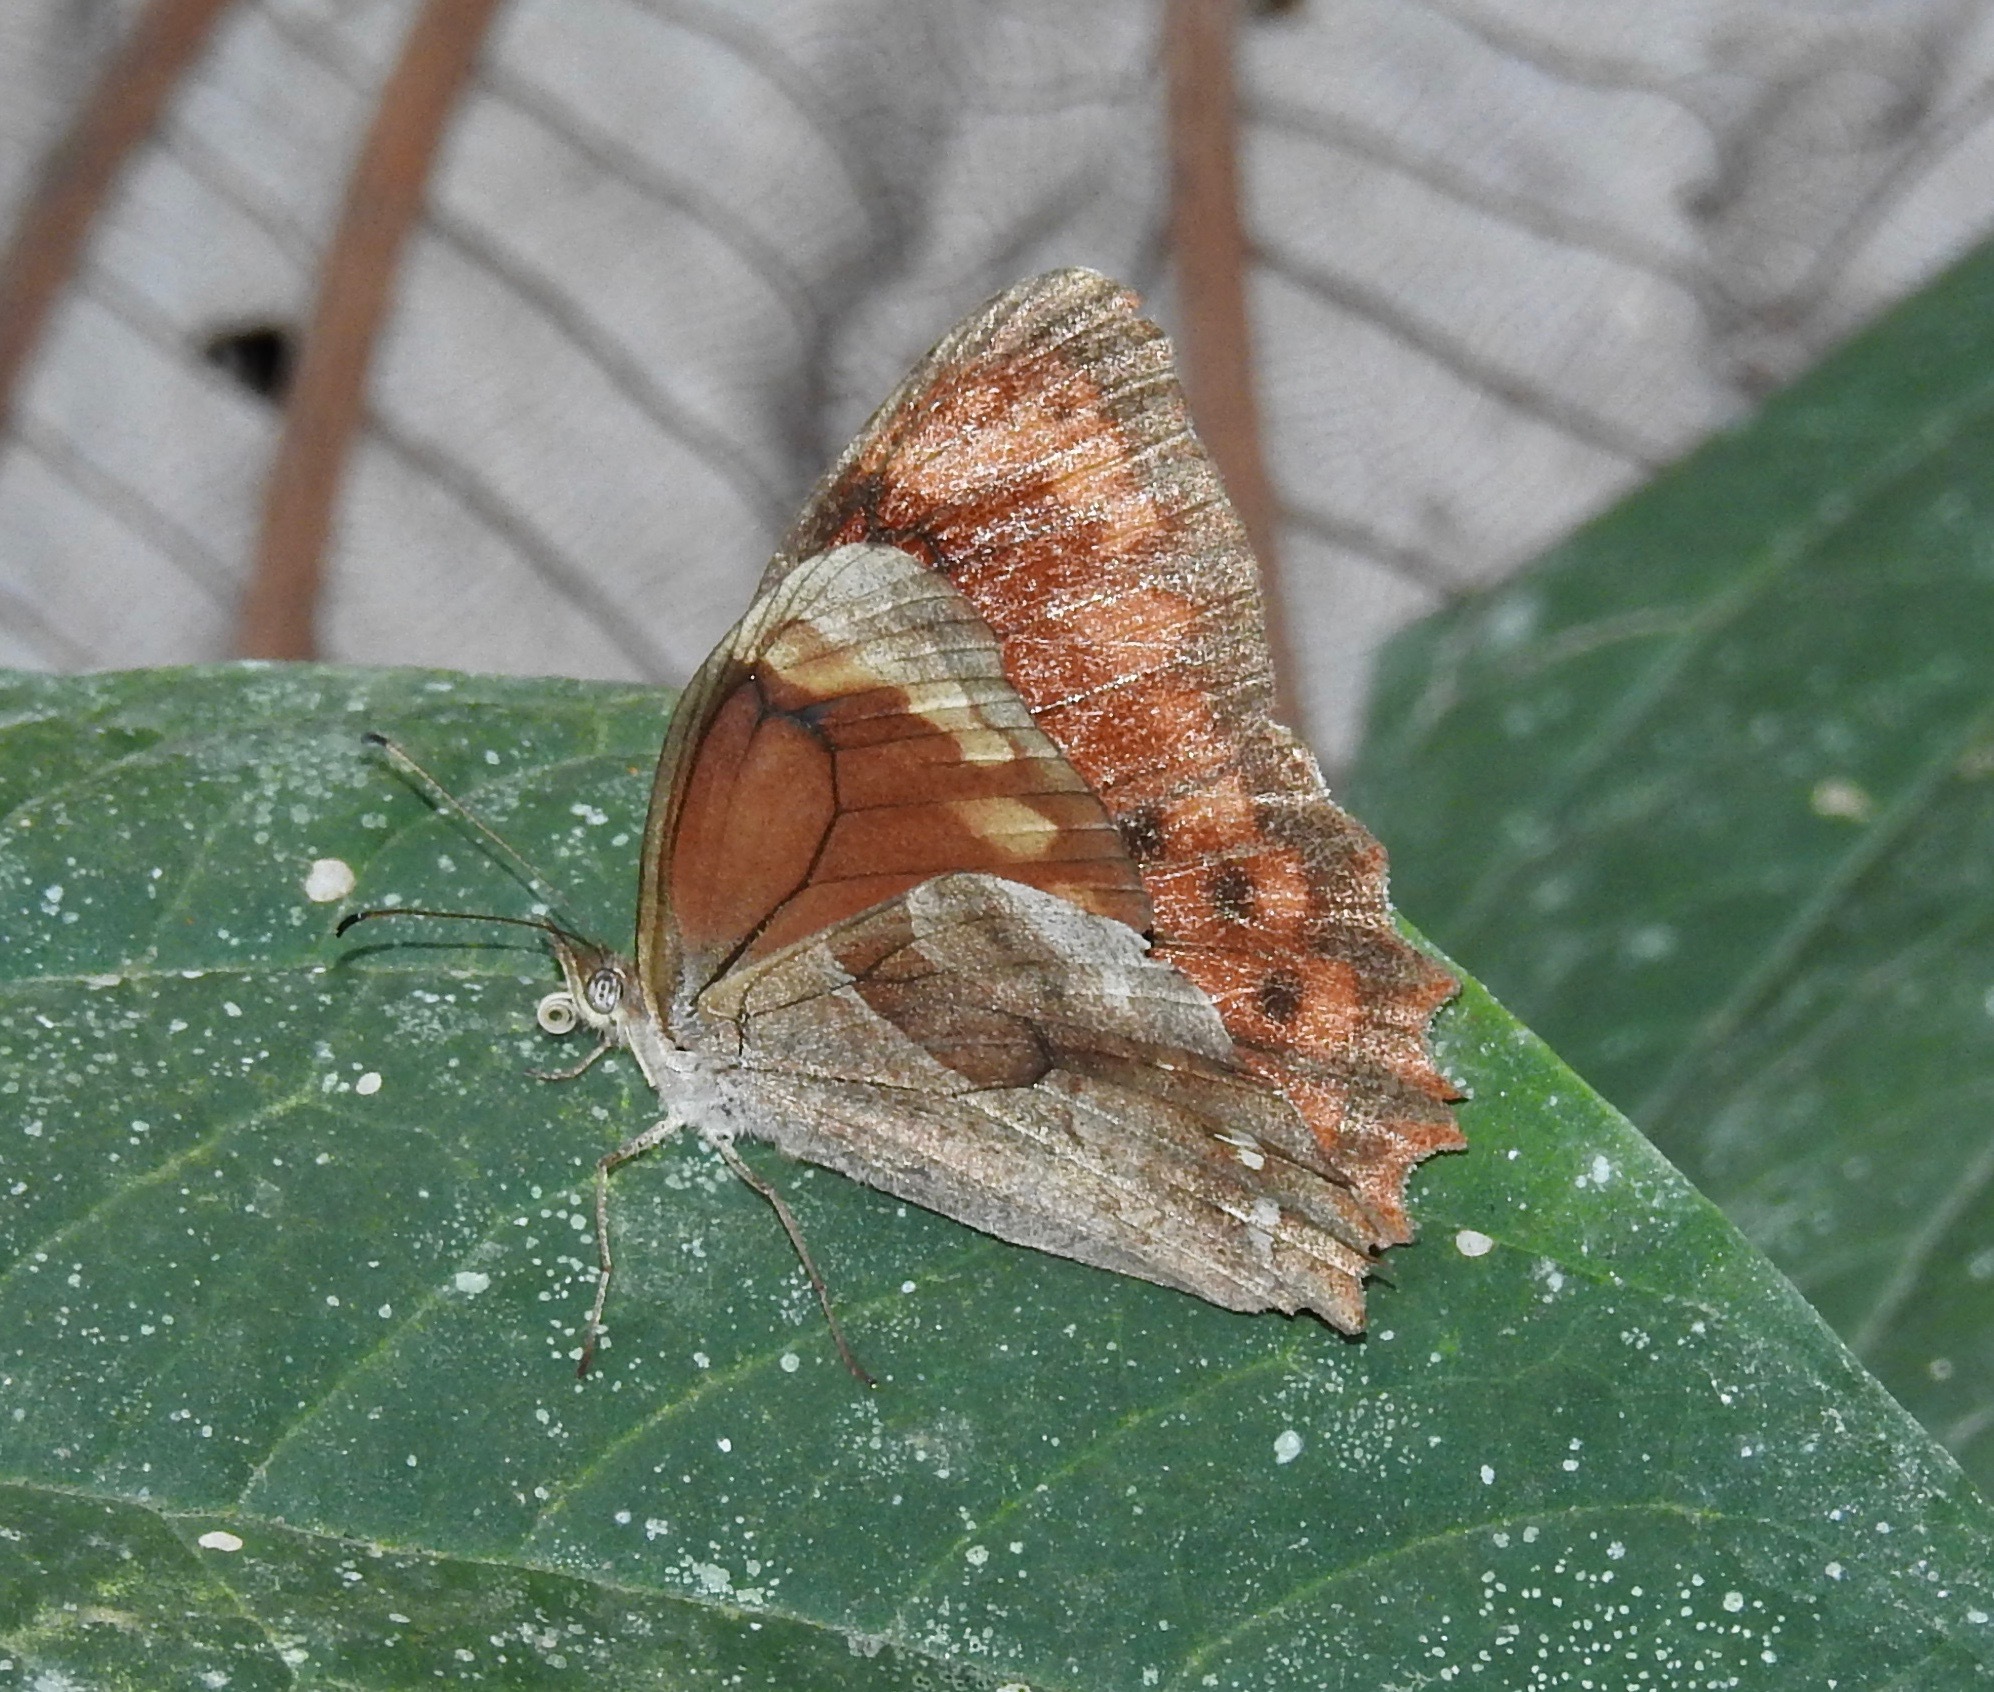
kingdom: Animalia
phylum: Arthropoda
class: Insecta
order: Lepidoptera
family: Nymphalidae
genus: Lasiophila
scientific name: Lasiophila ciris
